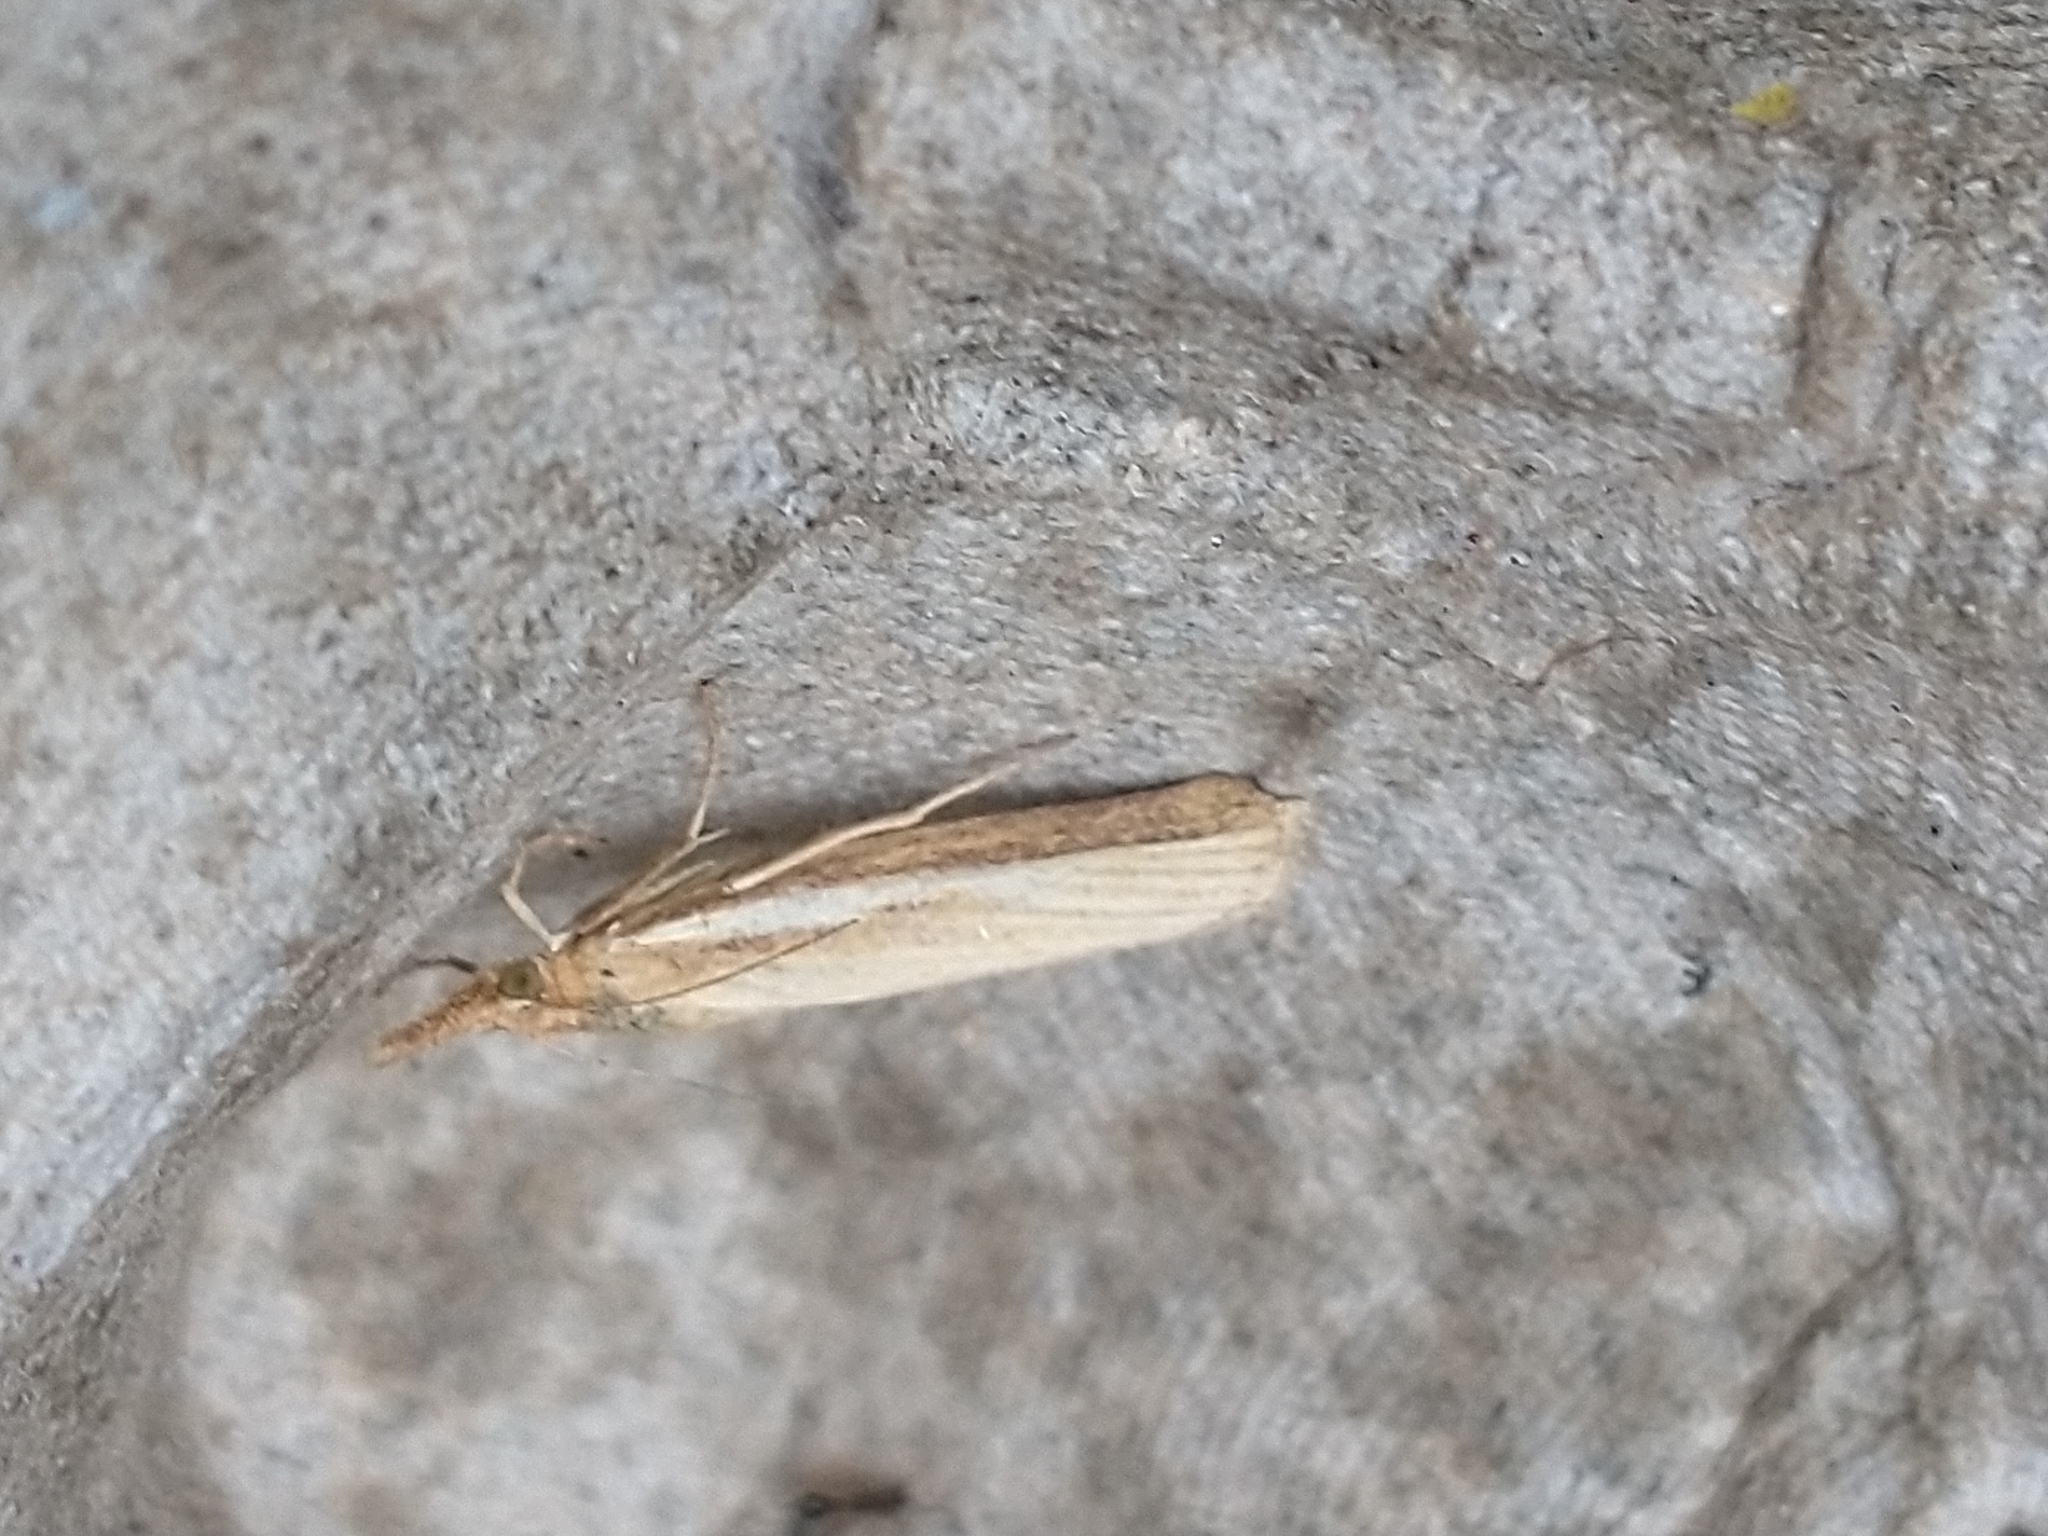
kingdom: Animalia
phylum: Arthropoda
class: Insecta
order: Lepidoptera
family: Crambidae
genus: Agriphila
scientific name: Agriphila tristellus
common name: Common grass-veneer
